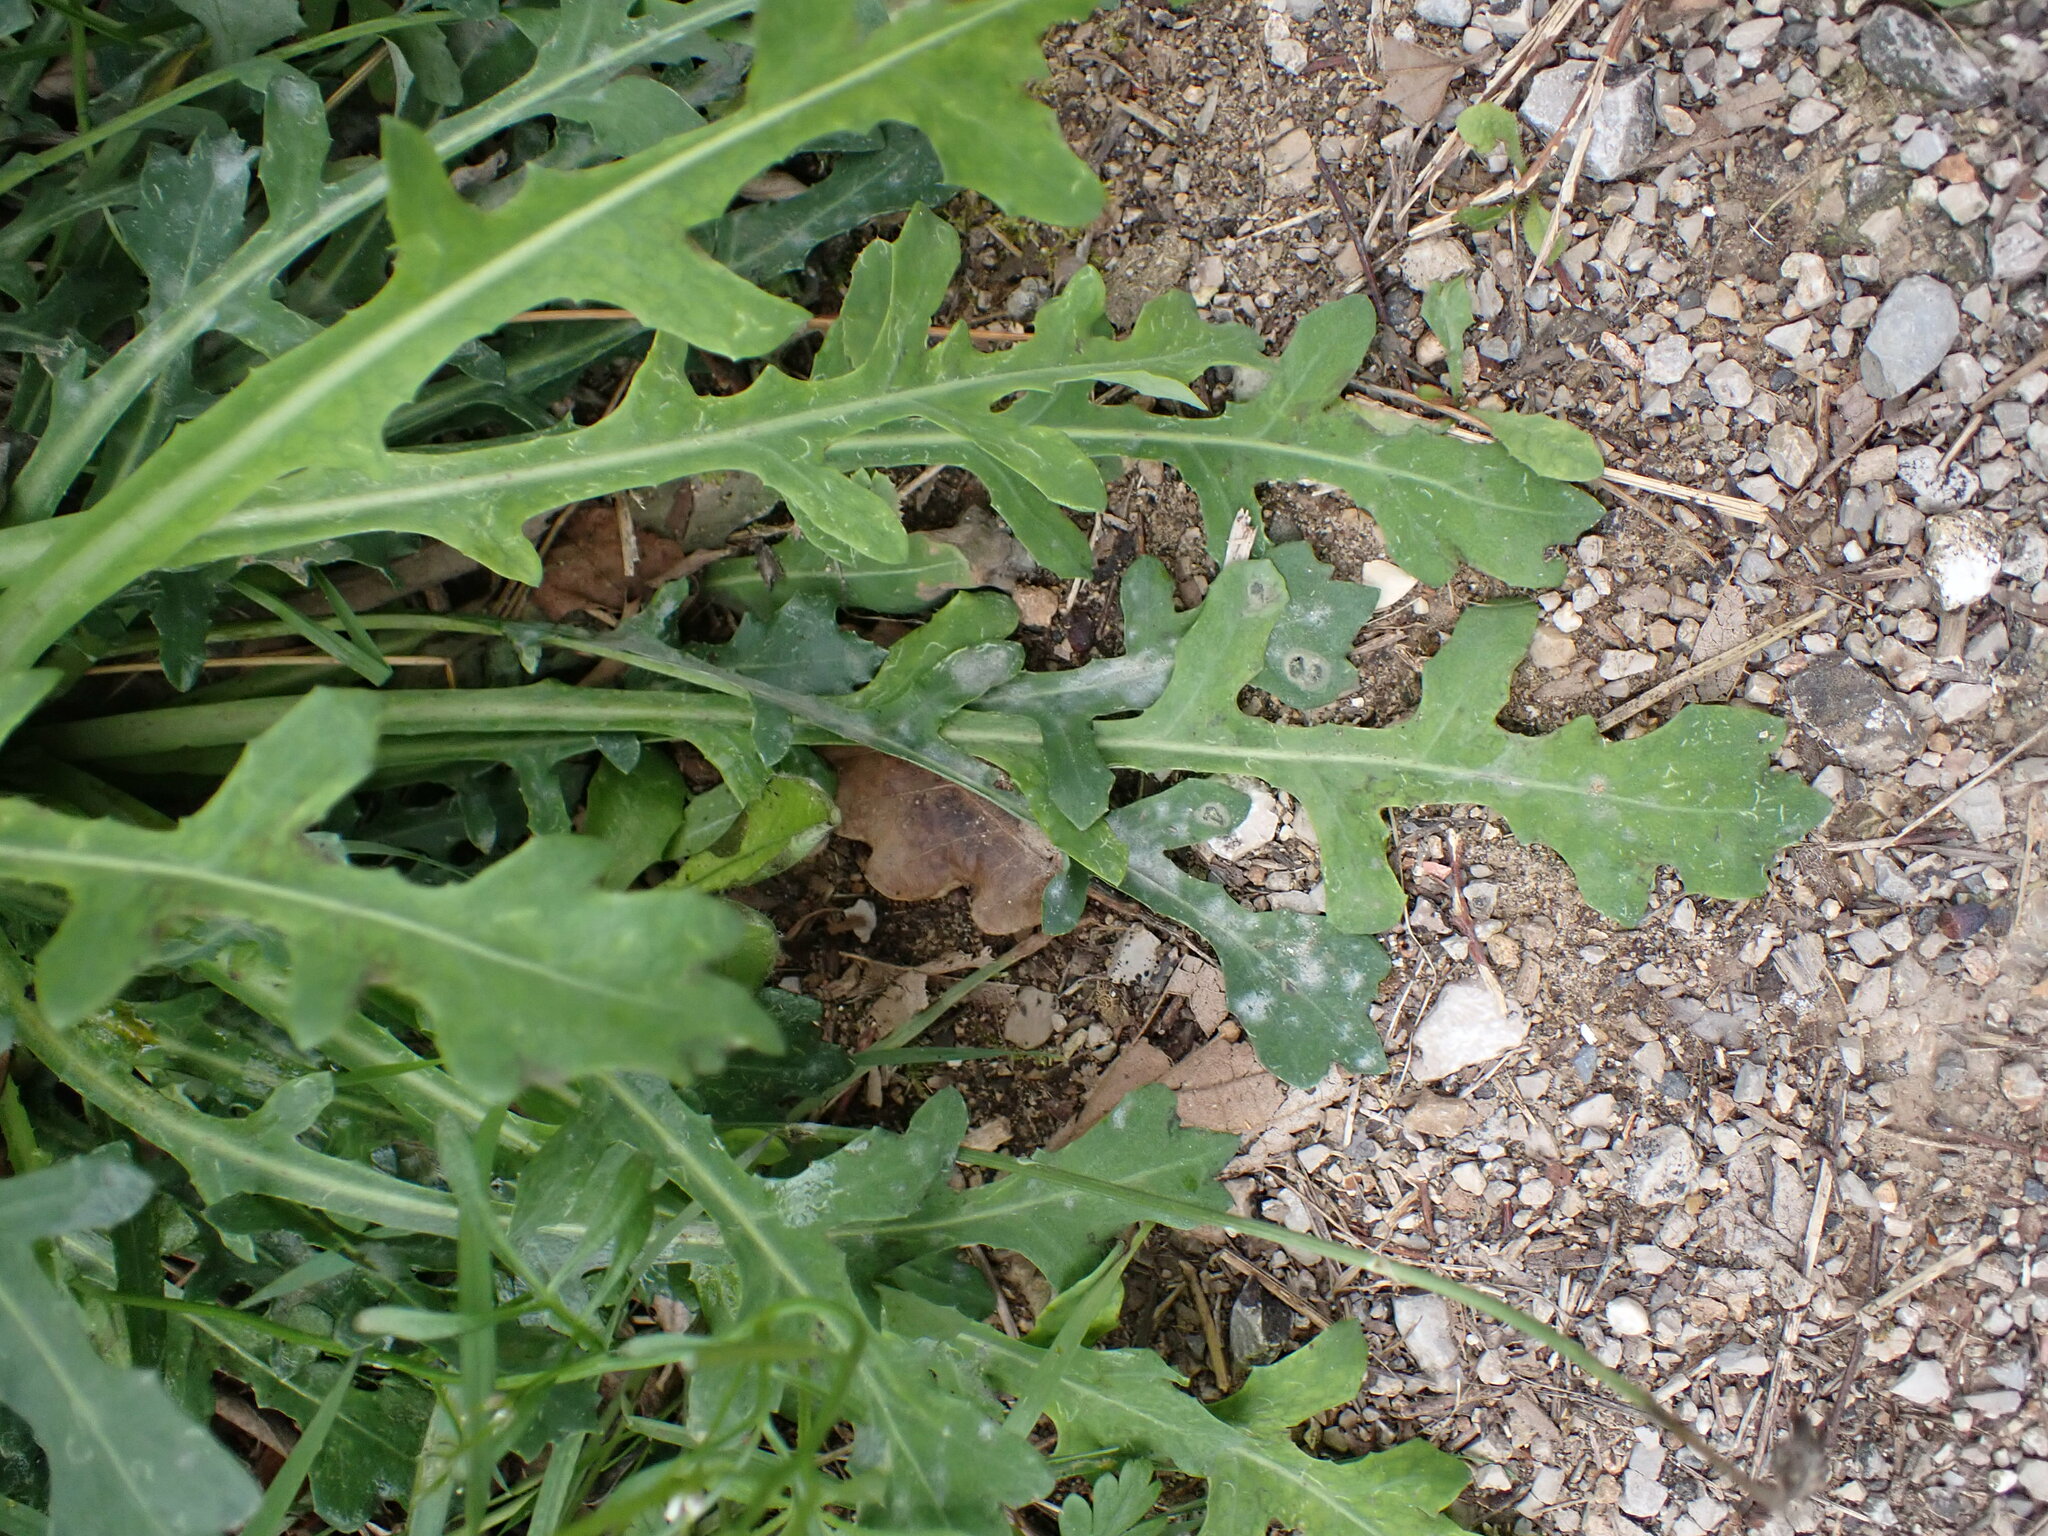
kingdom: Plantae
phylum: Tracheophyta
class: Magnoliopsida
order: Asterales
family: Asteraceae
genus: Reichardia
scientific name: Reichardia picroides
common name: Common brighteyes
